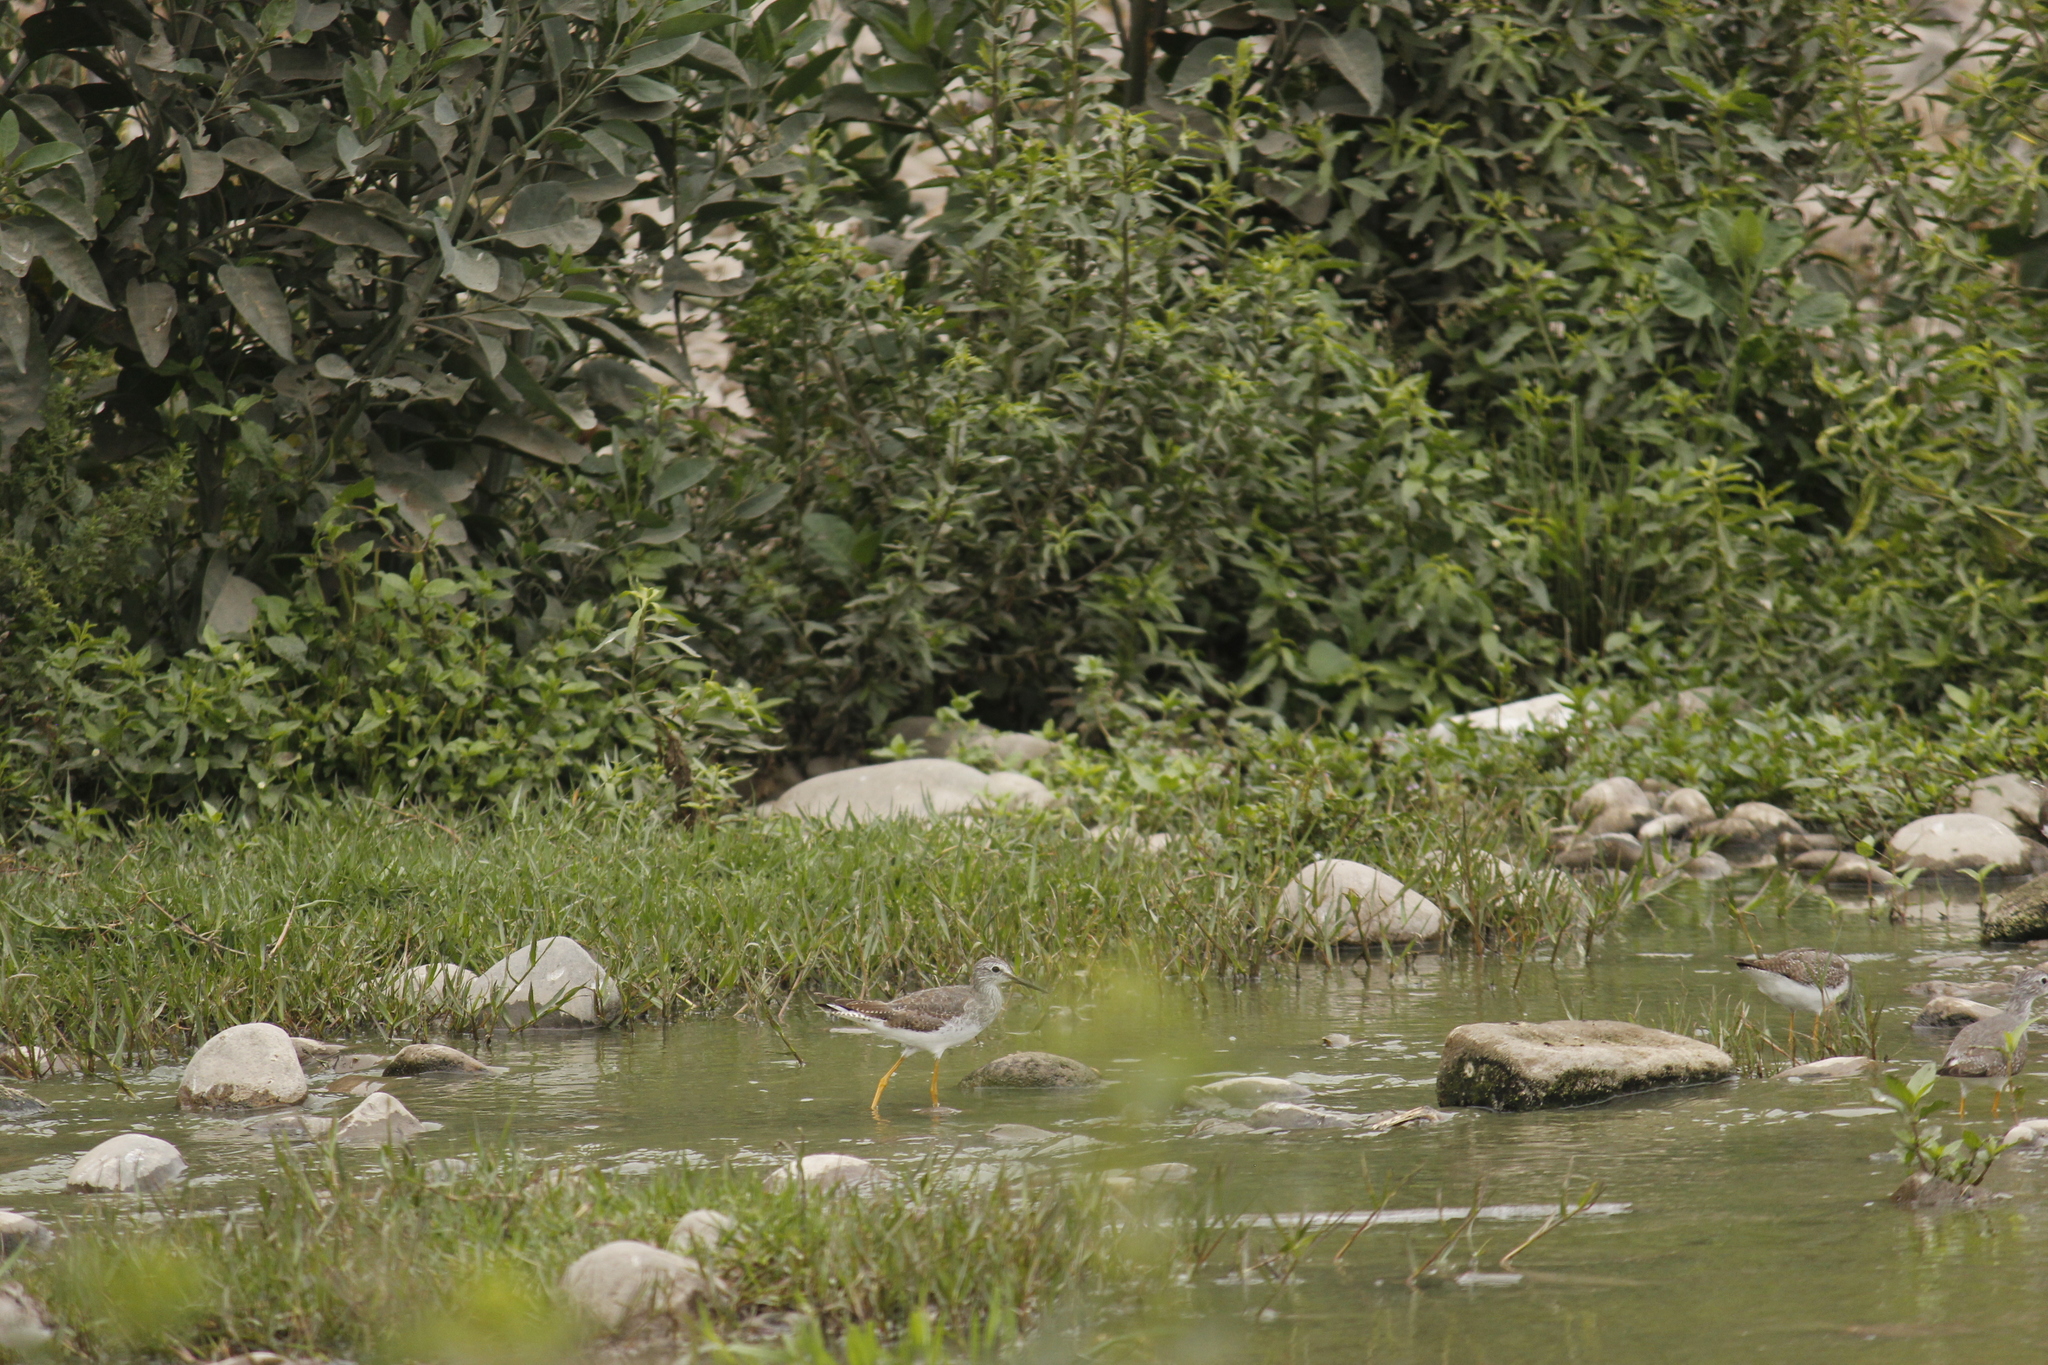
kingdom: Animalia
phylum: Chordata
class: Aves
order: Charadriiformes
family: Scolopacidae
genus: Tringa
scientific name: Tringa flavipes
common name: Lesser yellowlegs
